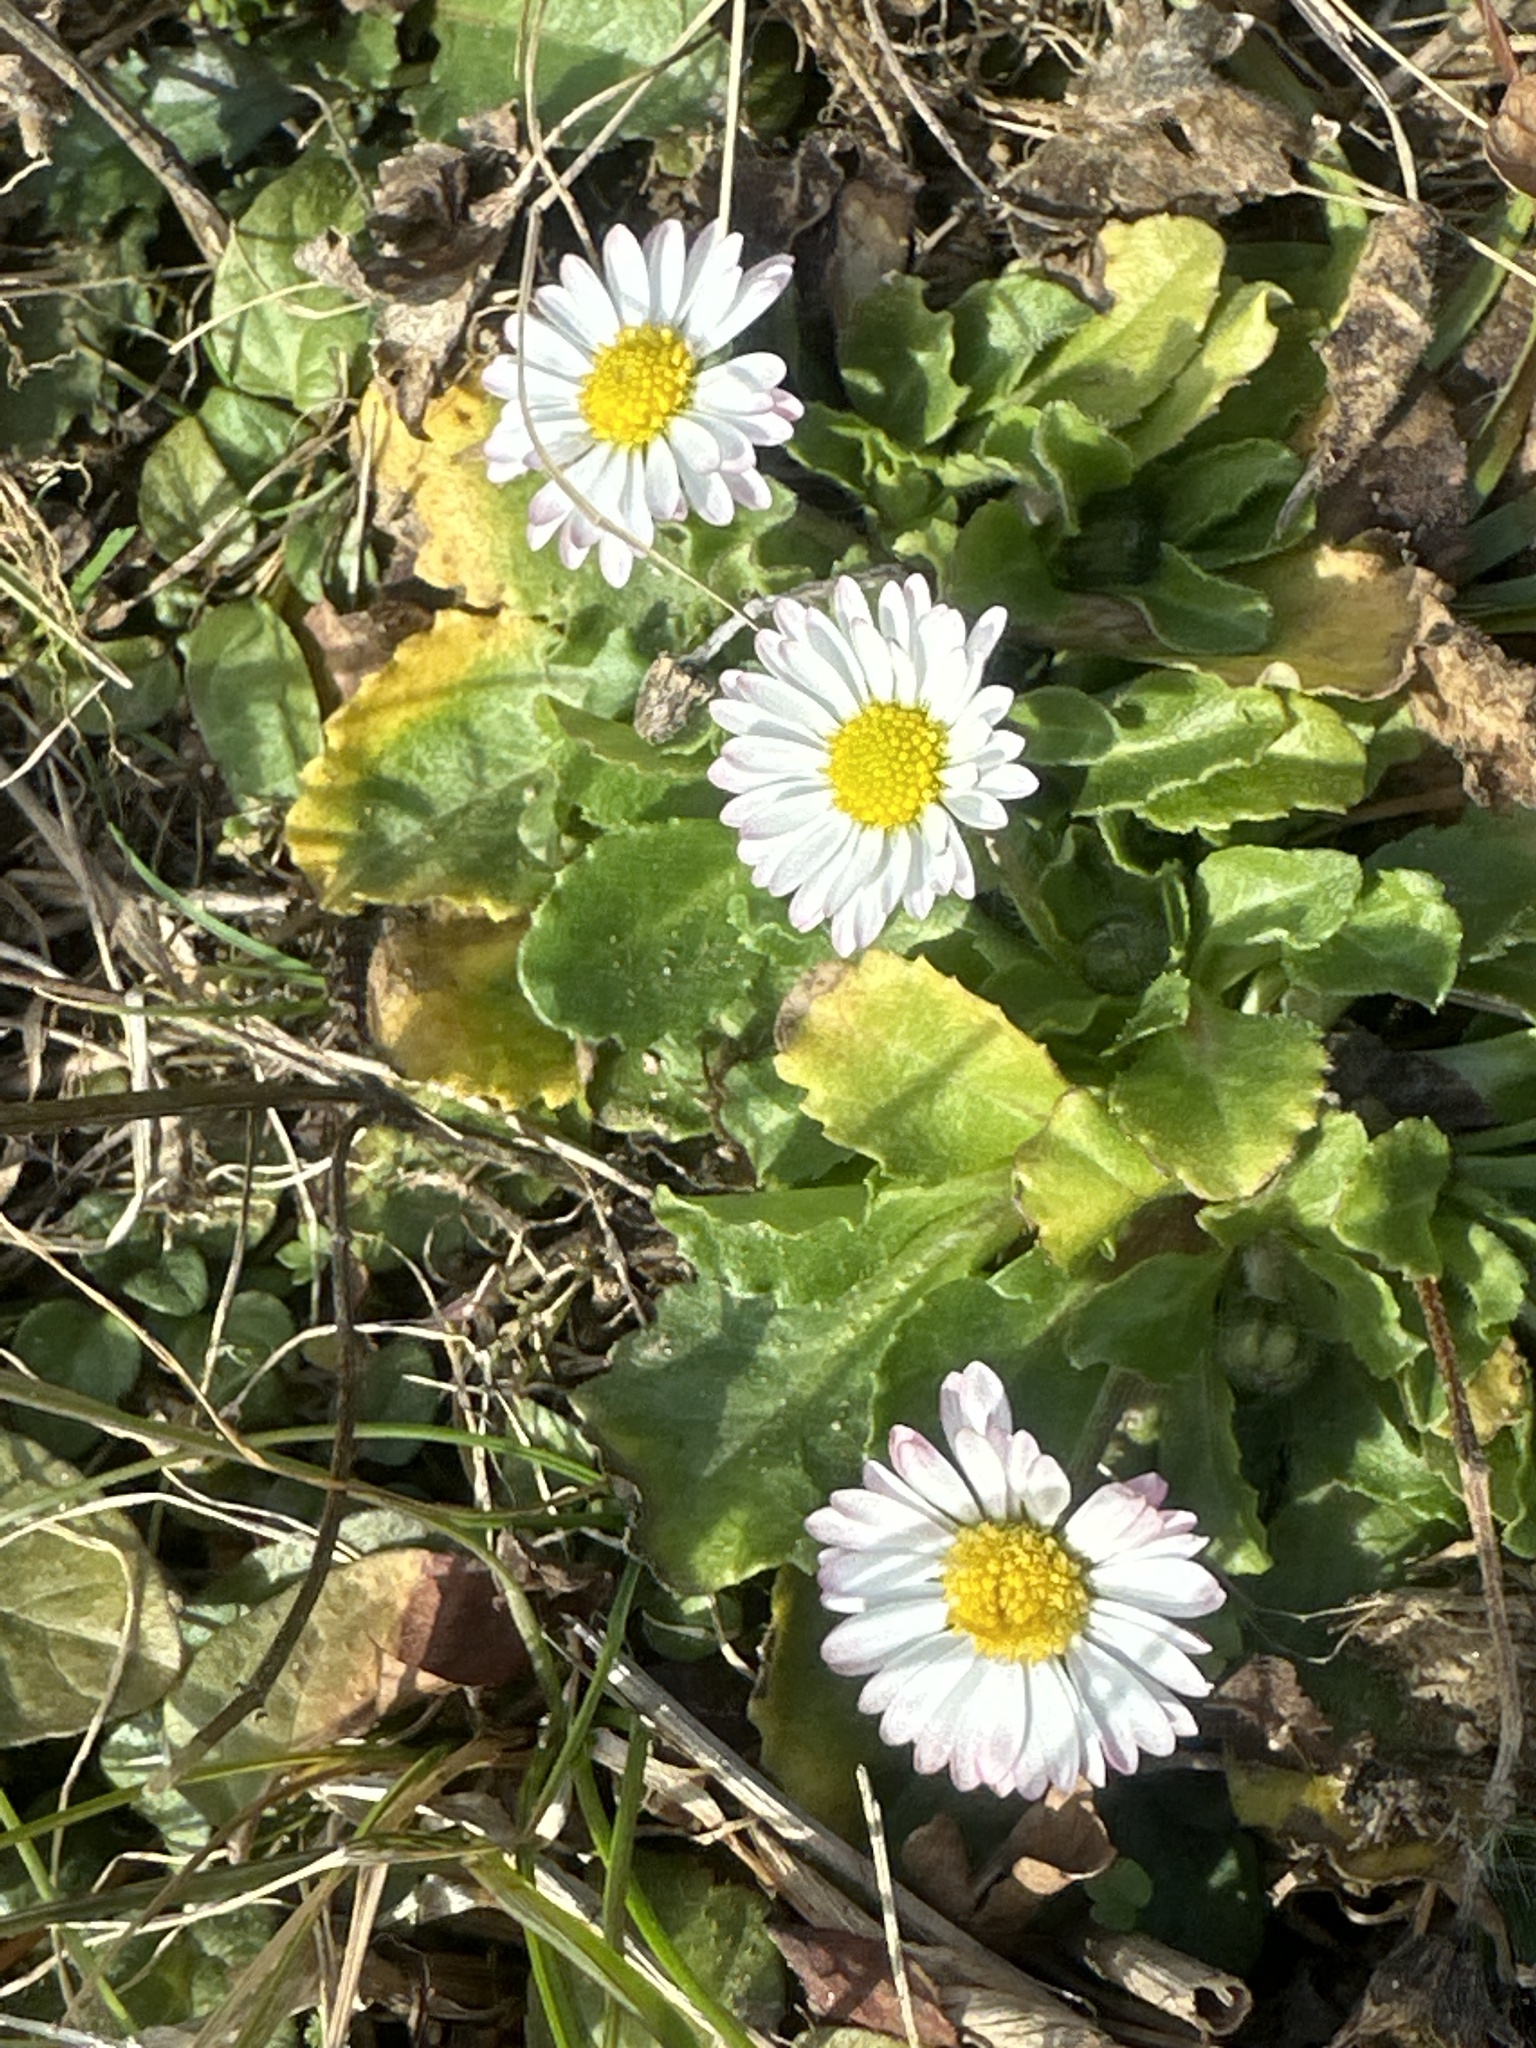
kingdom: Plantae
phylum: Tracheophyta
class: Magnoliopsida
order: Asterales
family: Asteraceae
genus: Bellis
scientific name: Bellis perennis
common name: Lawndaisy
